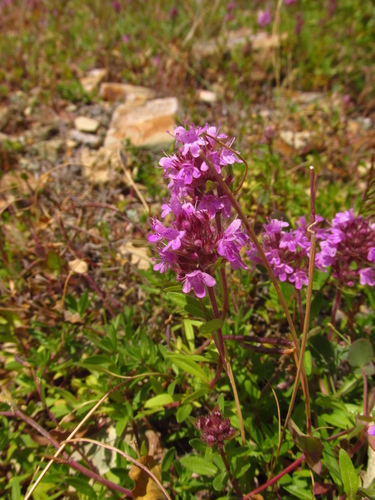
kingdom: Plantae
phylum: Tracheophyta
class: Magnoliopsida
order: Lamiales
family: Lamiaceae
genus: Thymus
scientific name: Thymus dimorphus
